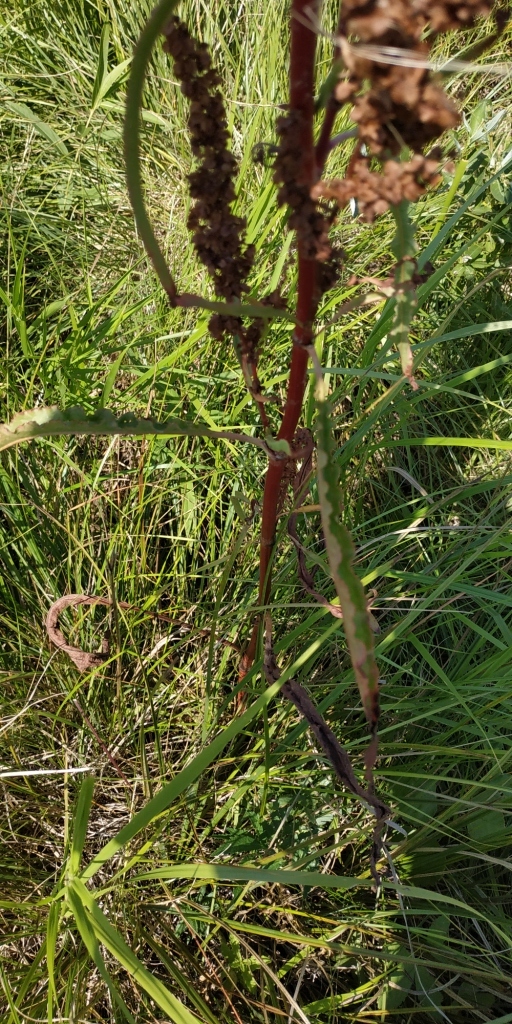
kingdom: Plantae
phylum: Tracheophyta
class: Magnoliopsida
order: Caryophyllales
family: Polygonaceae
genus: Rumex
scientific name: Rumex pseudonatronatus
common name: Field dock
